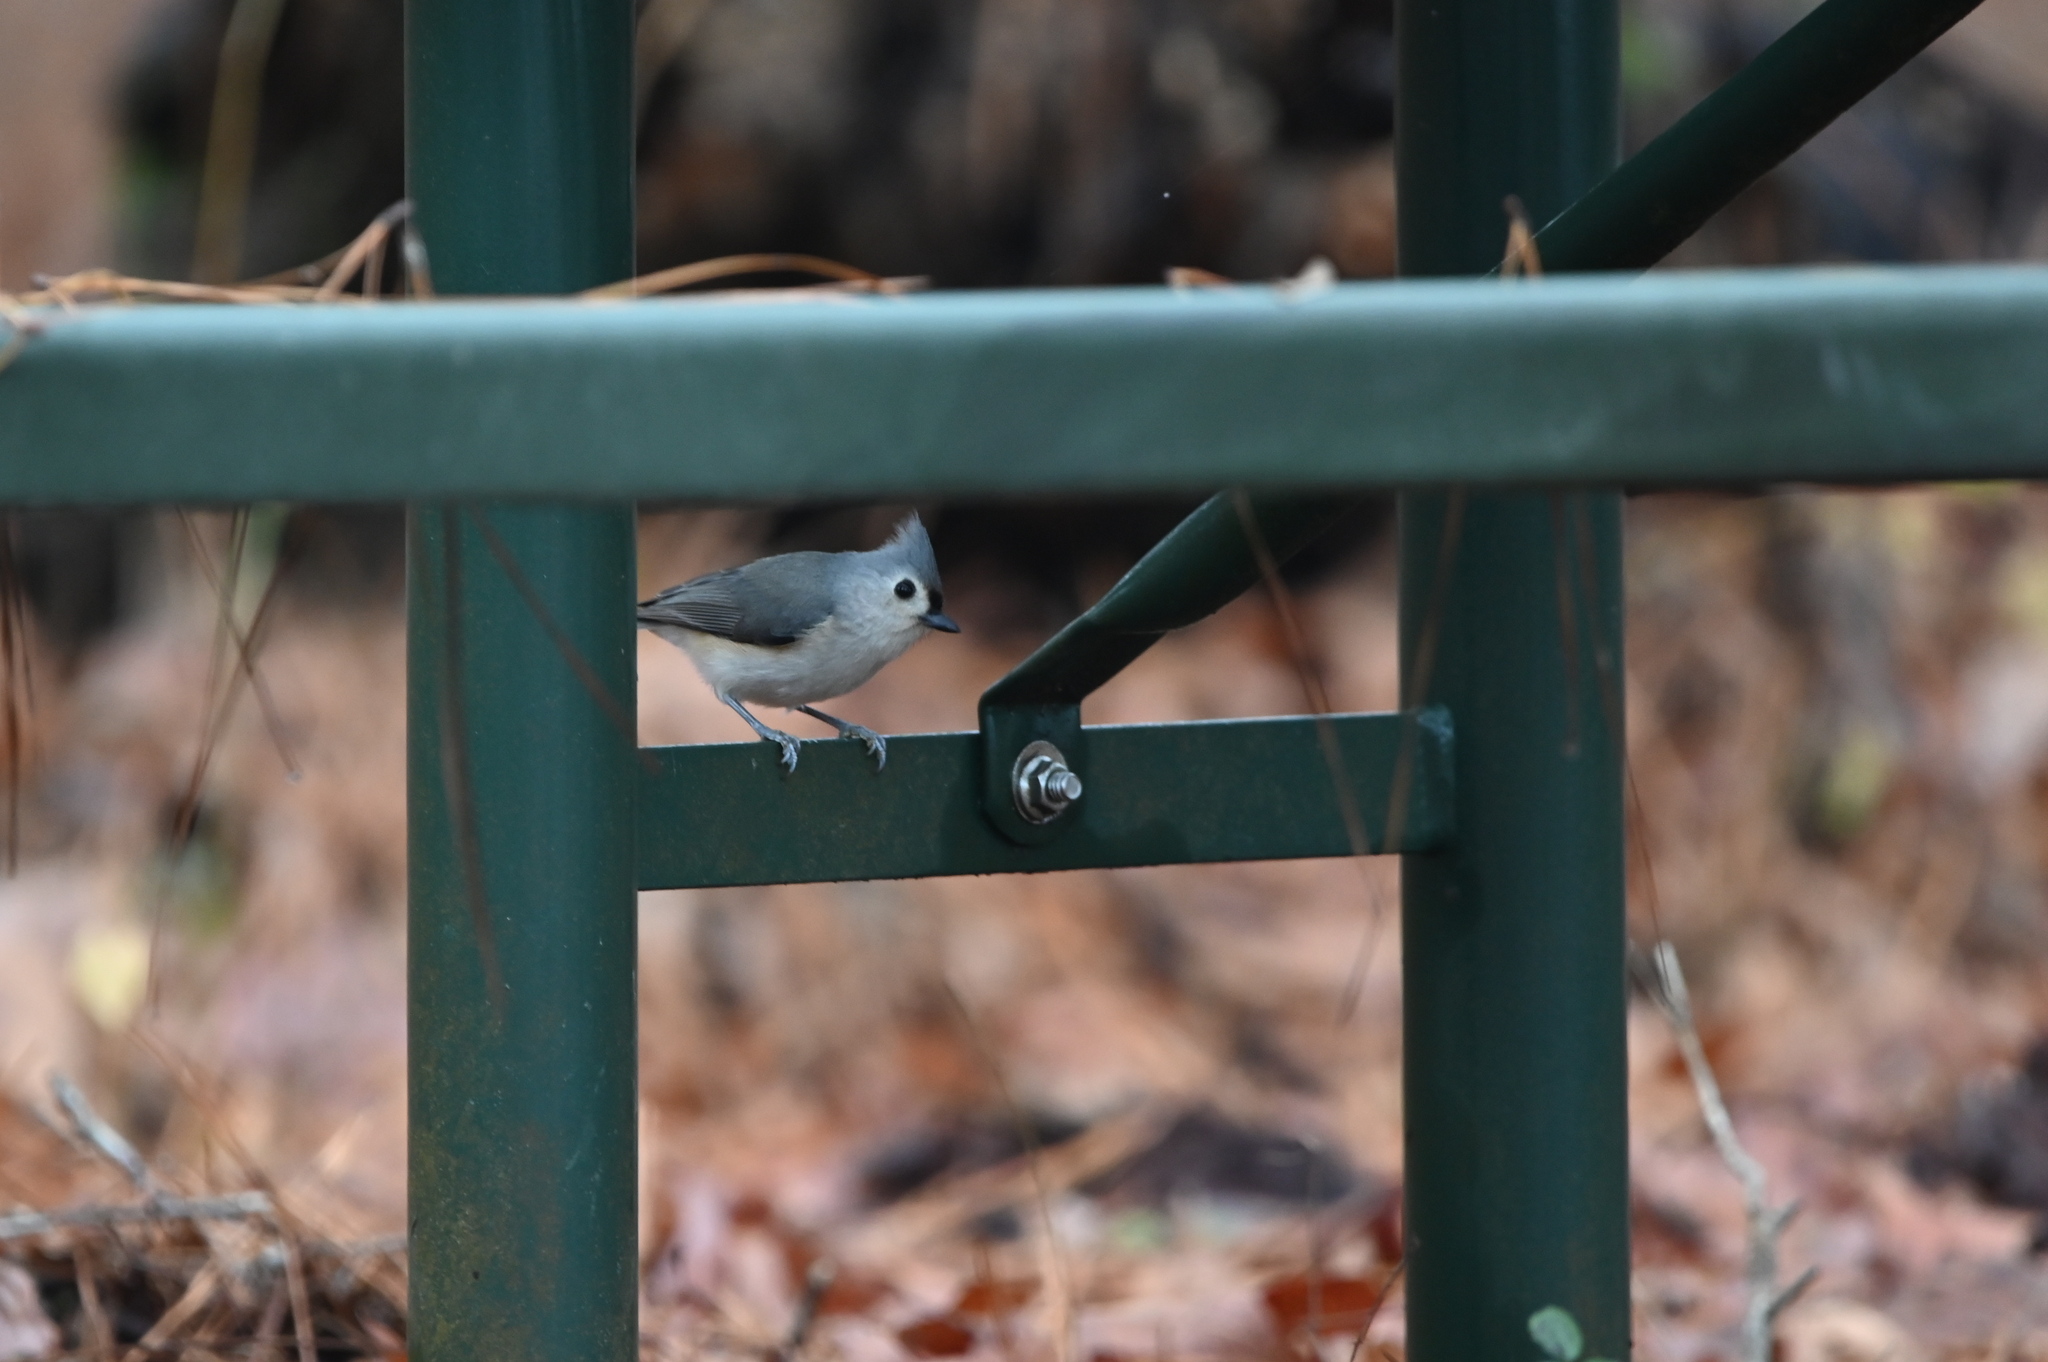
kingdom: Animalia
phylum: Chordata
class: Aves
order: Passeriformes
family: Paridae
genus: Baeolophus
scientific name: Baeolophus bicolor
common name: Tufted titmouse
